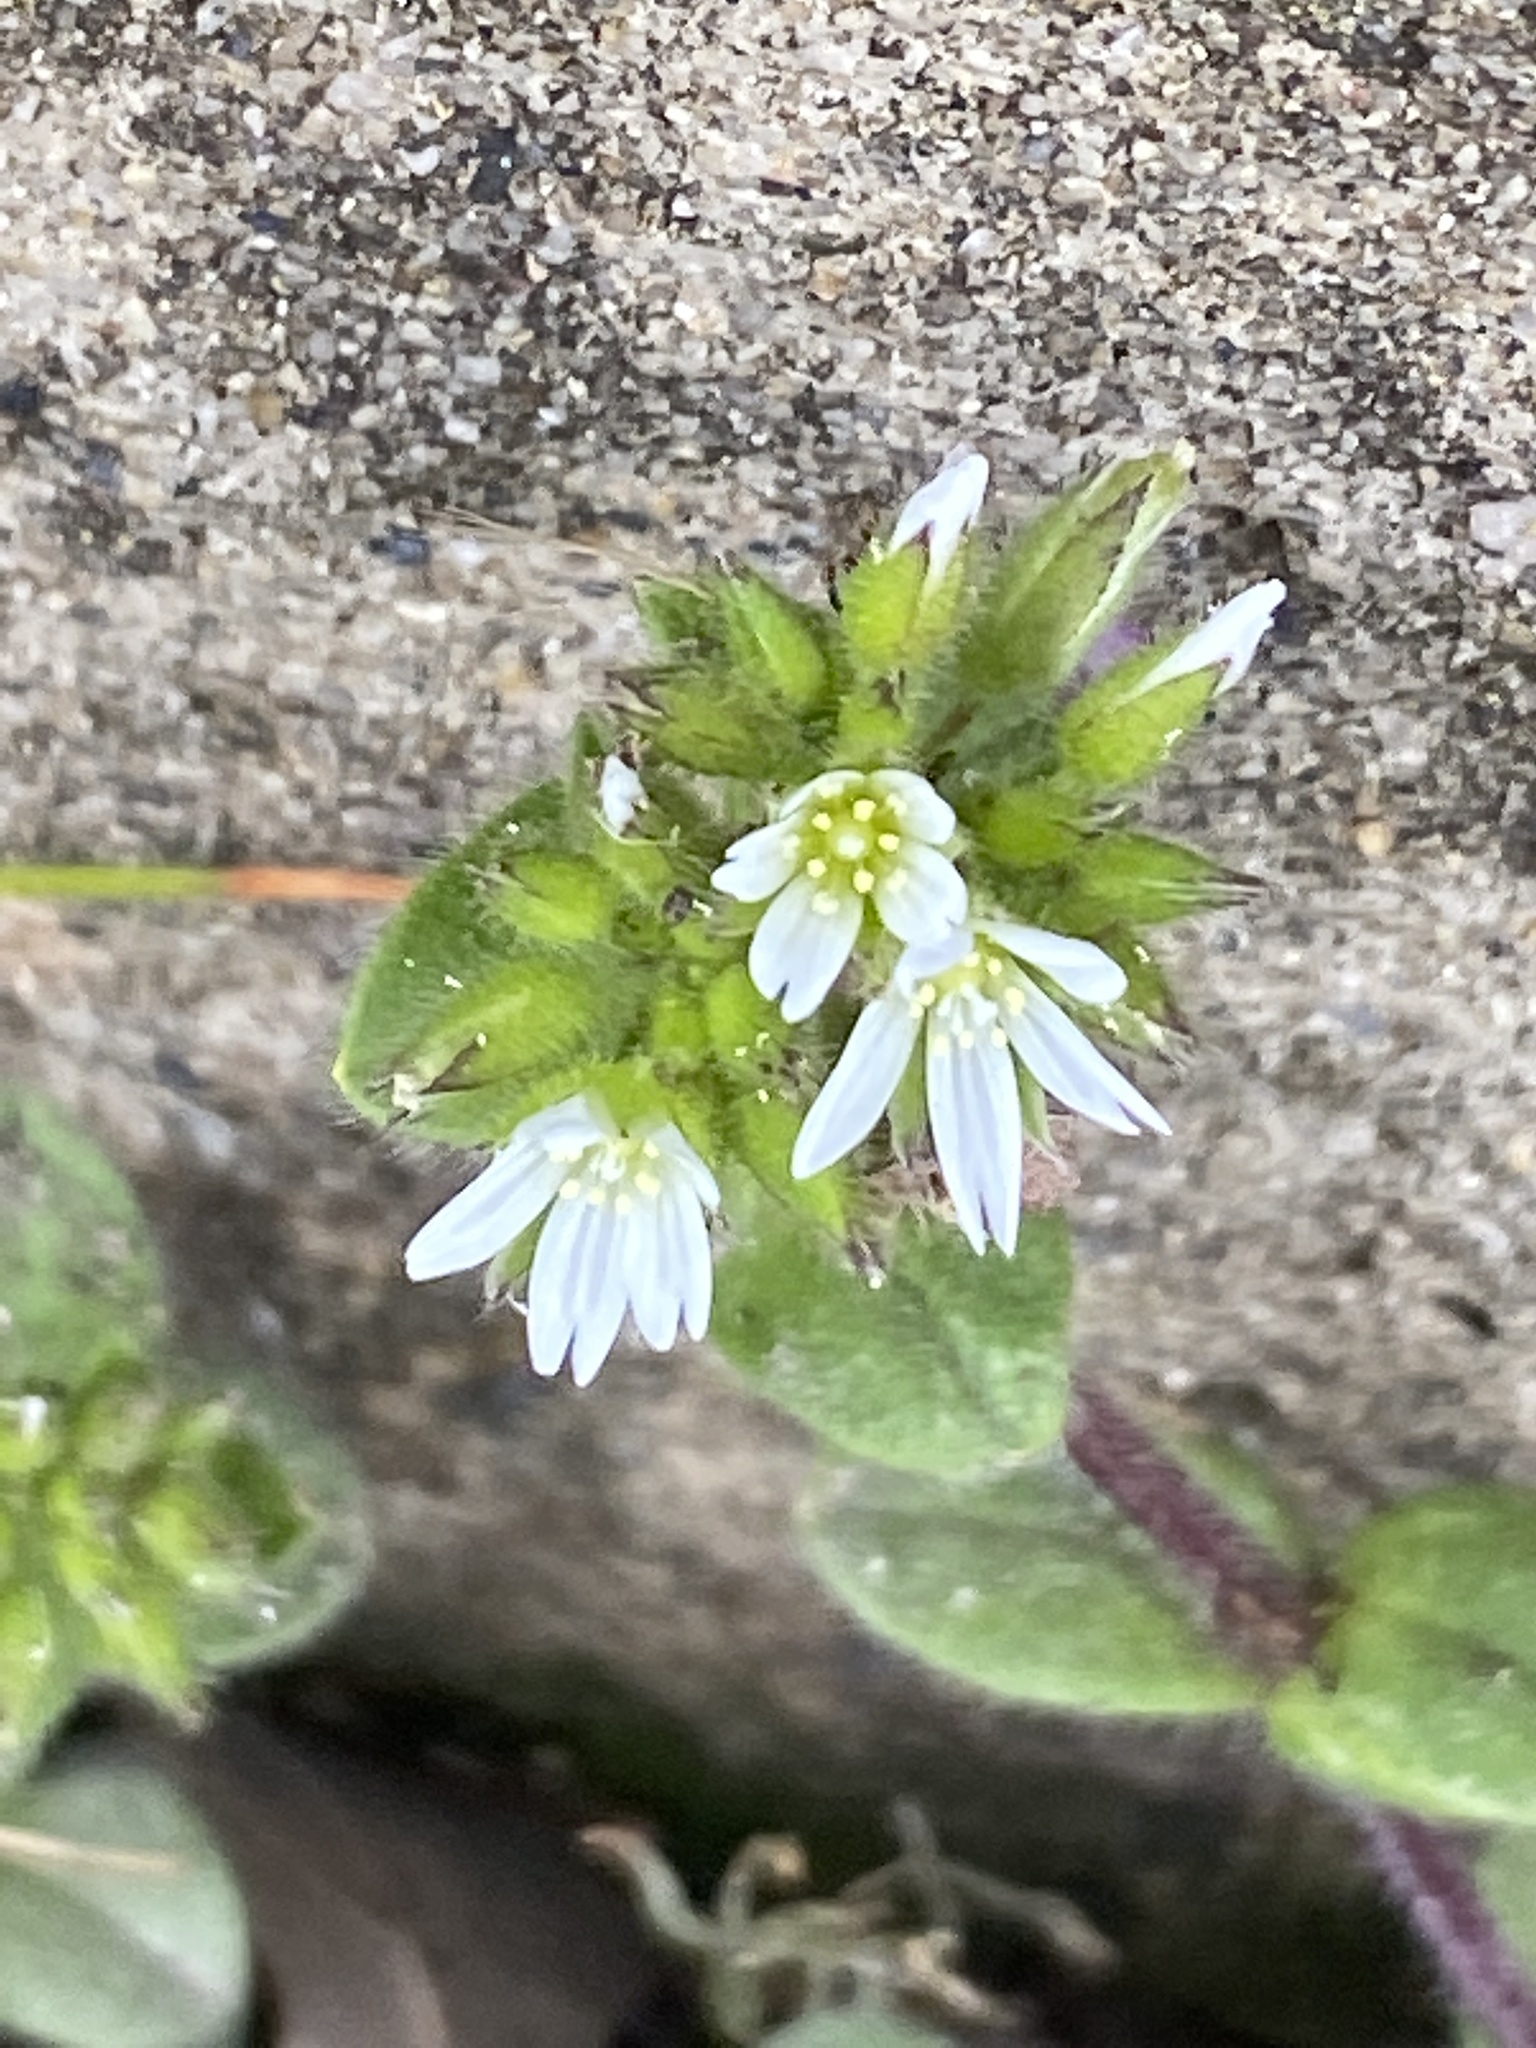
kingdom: Plantae
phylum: Tracheophyta
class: Magnoliopsida
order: Caryophyllales
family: Caryophyllaceae
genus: Cerastium
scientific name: Cerastium glomeratum
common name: Sticky chickweed
